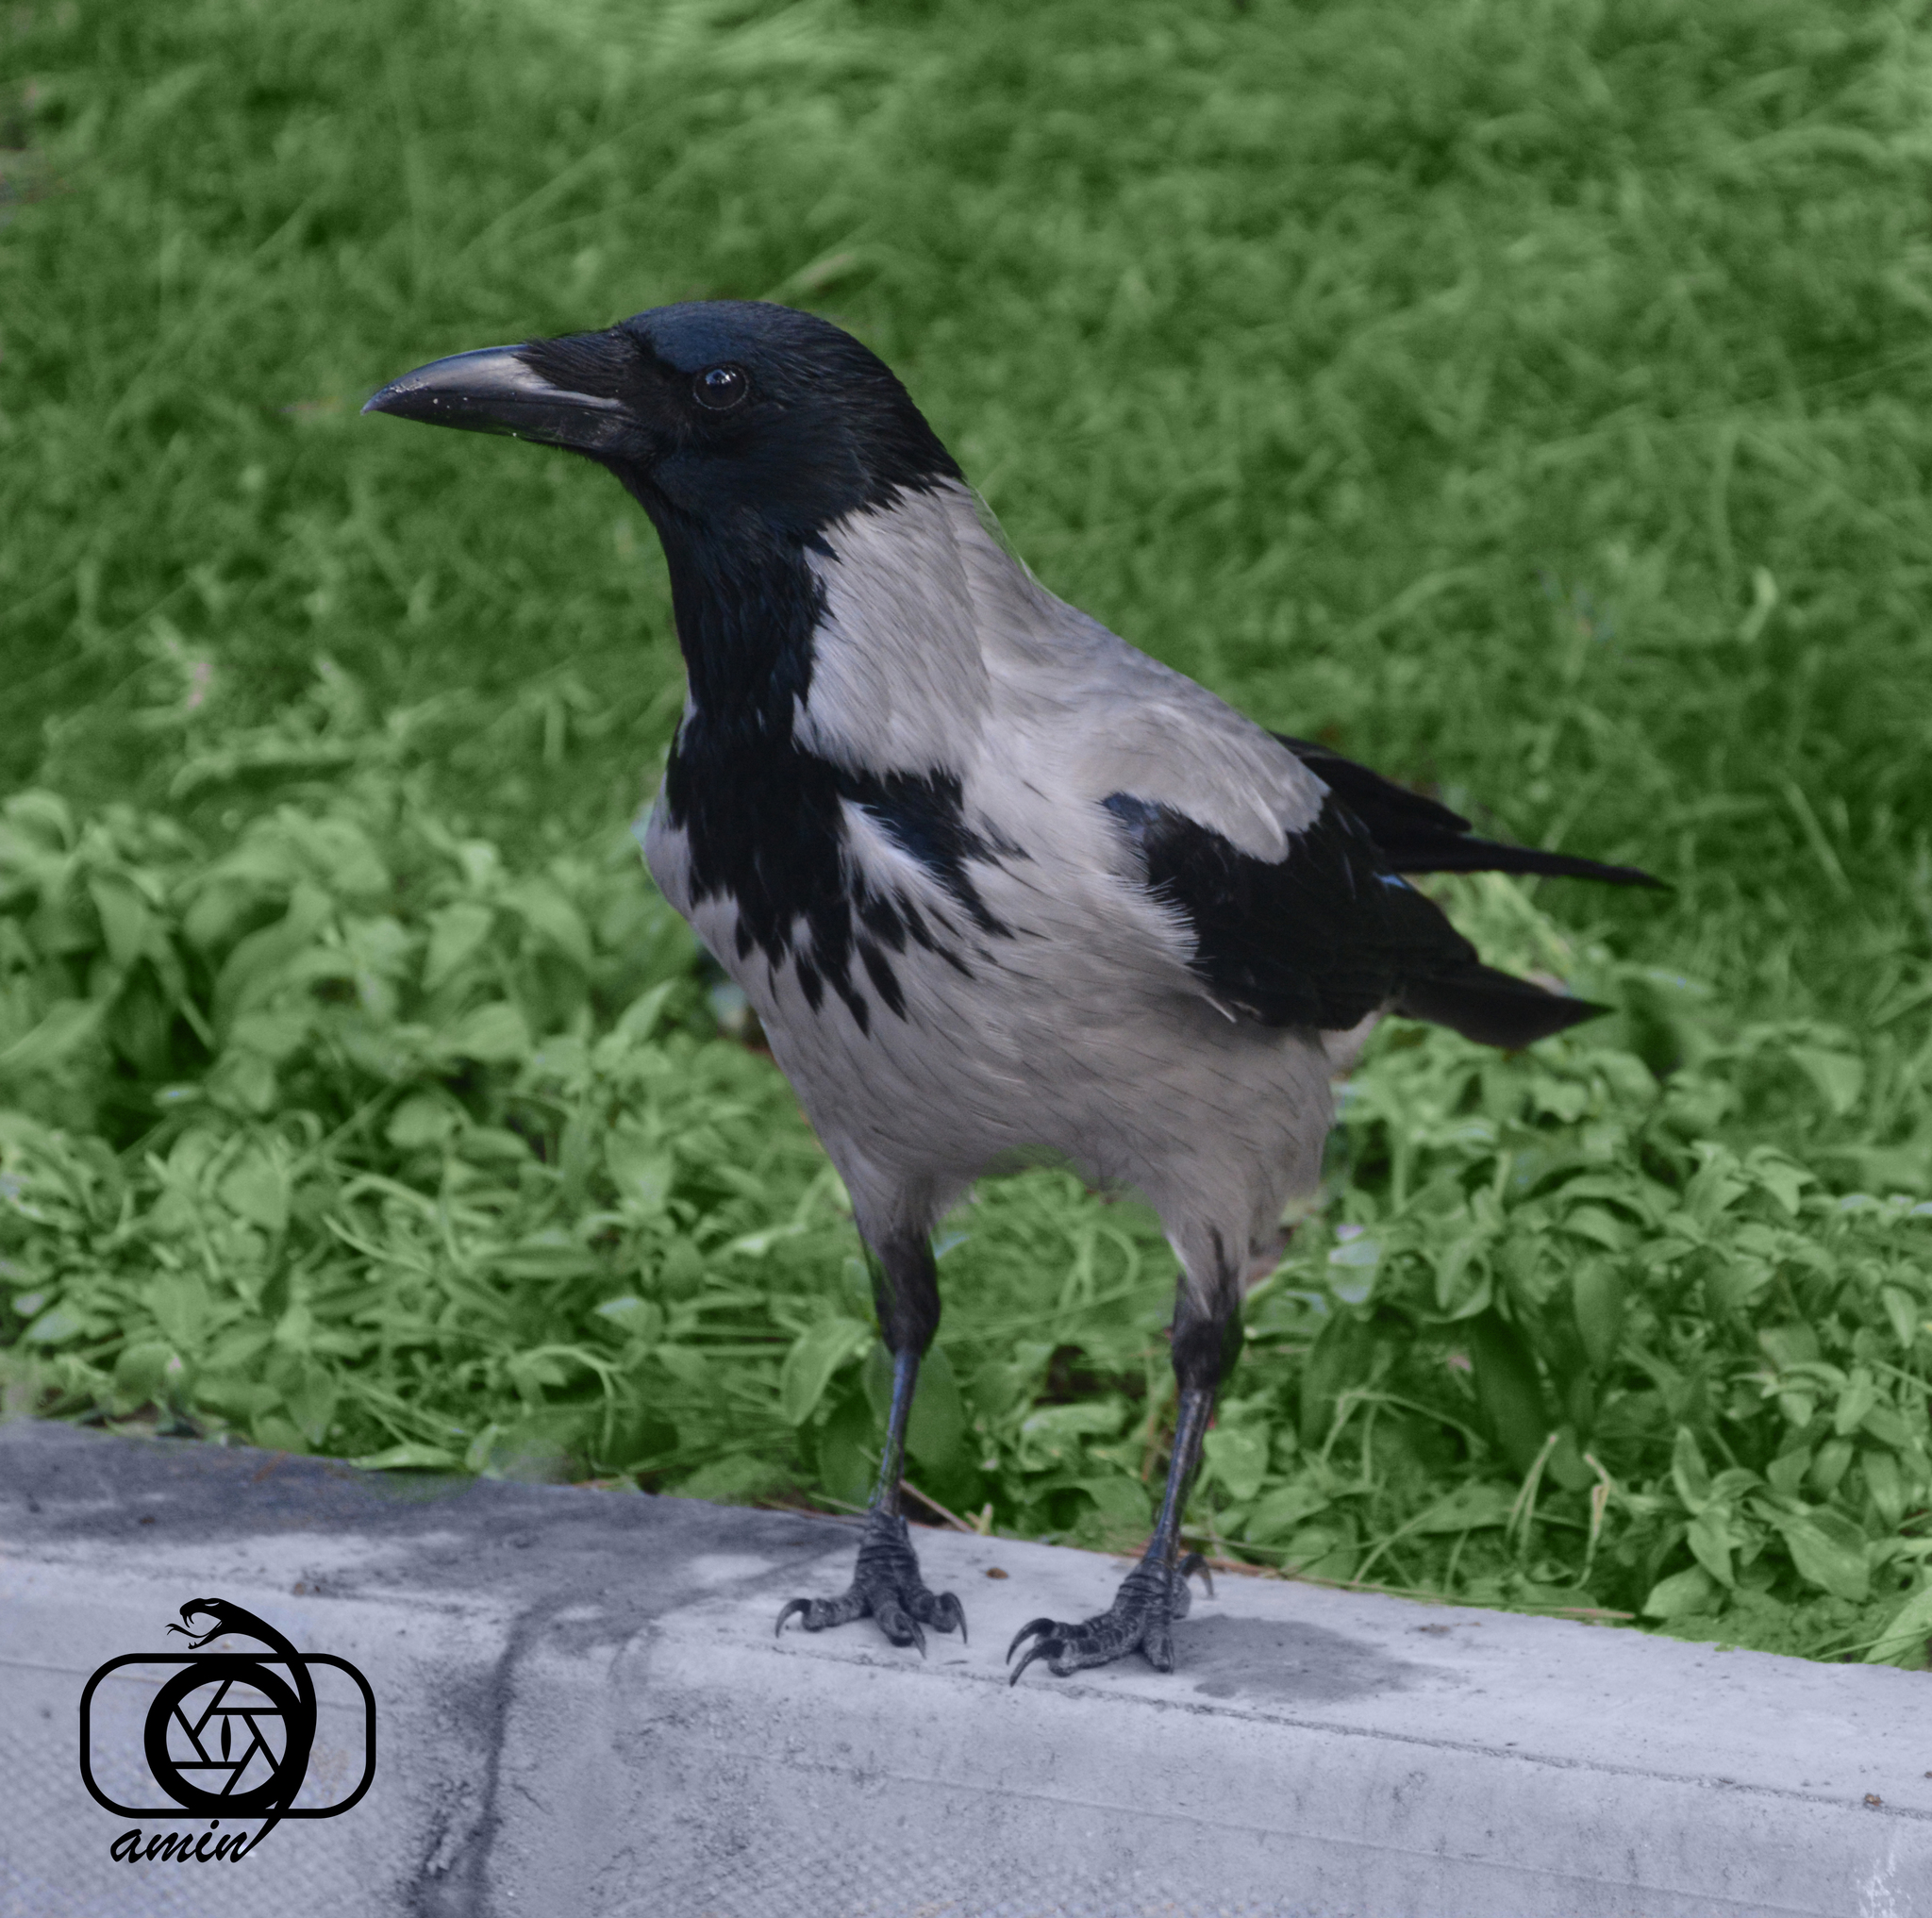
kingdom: Animalia
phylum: Chordata
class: Aves
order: Passeriformes
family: Corvidae
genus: Corvus
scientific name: Corvus cornix
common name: Hooded crow
